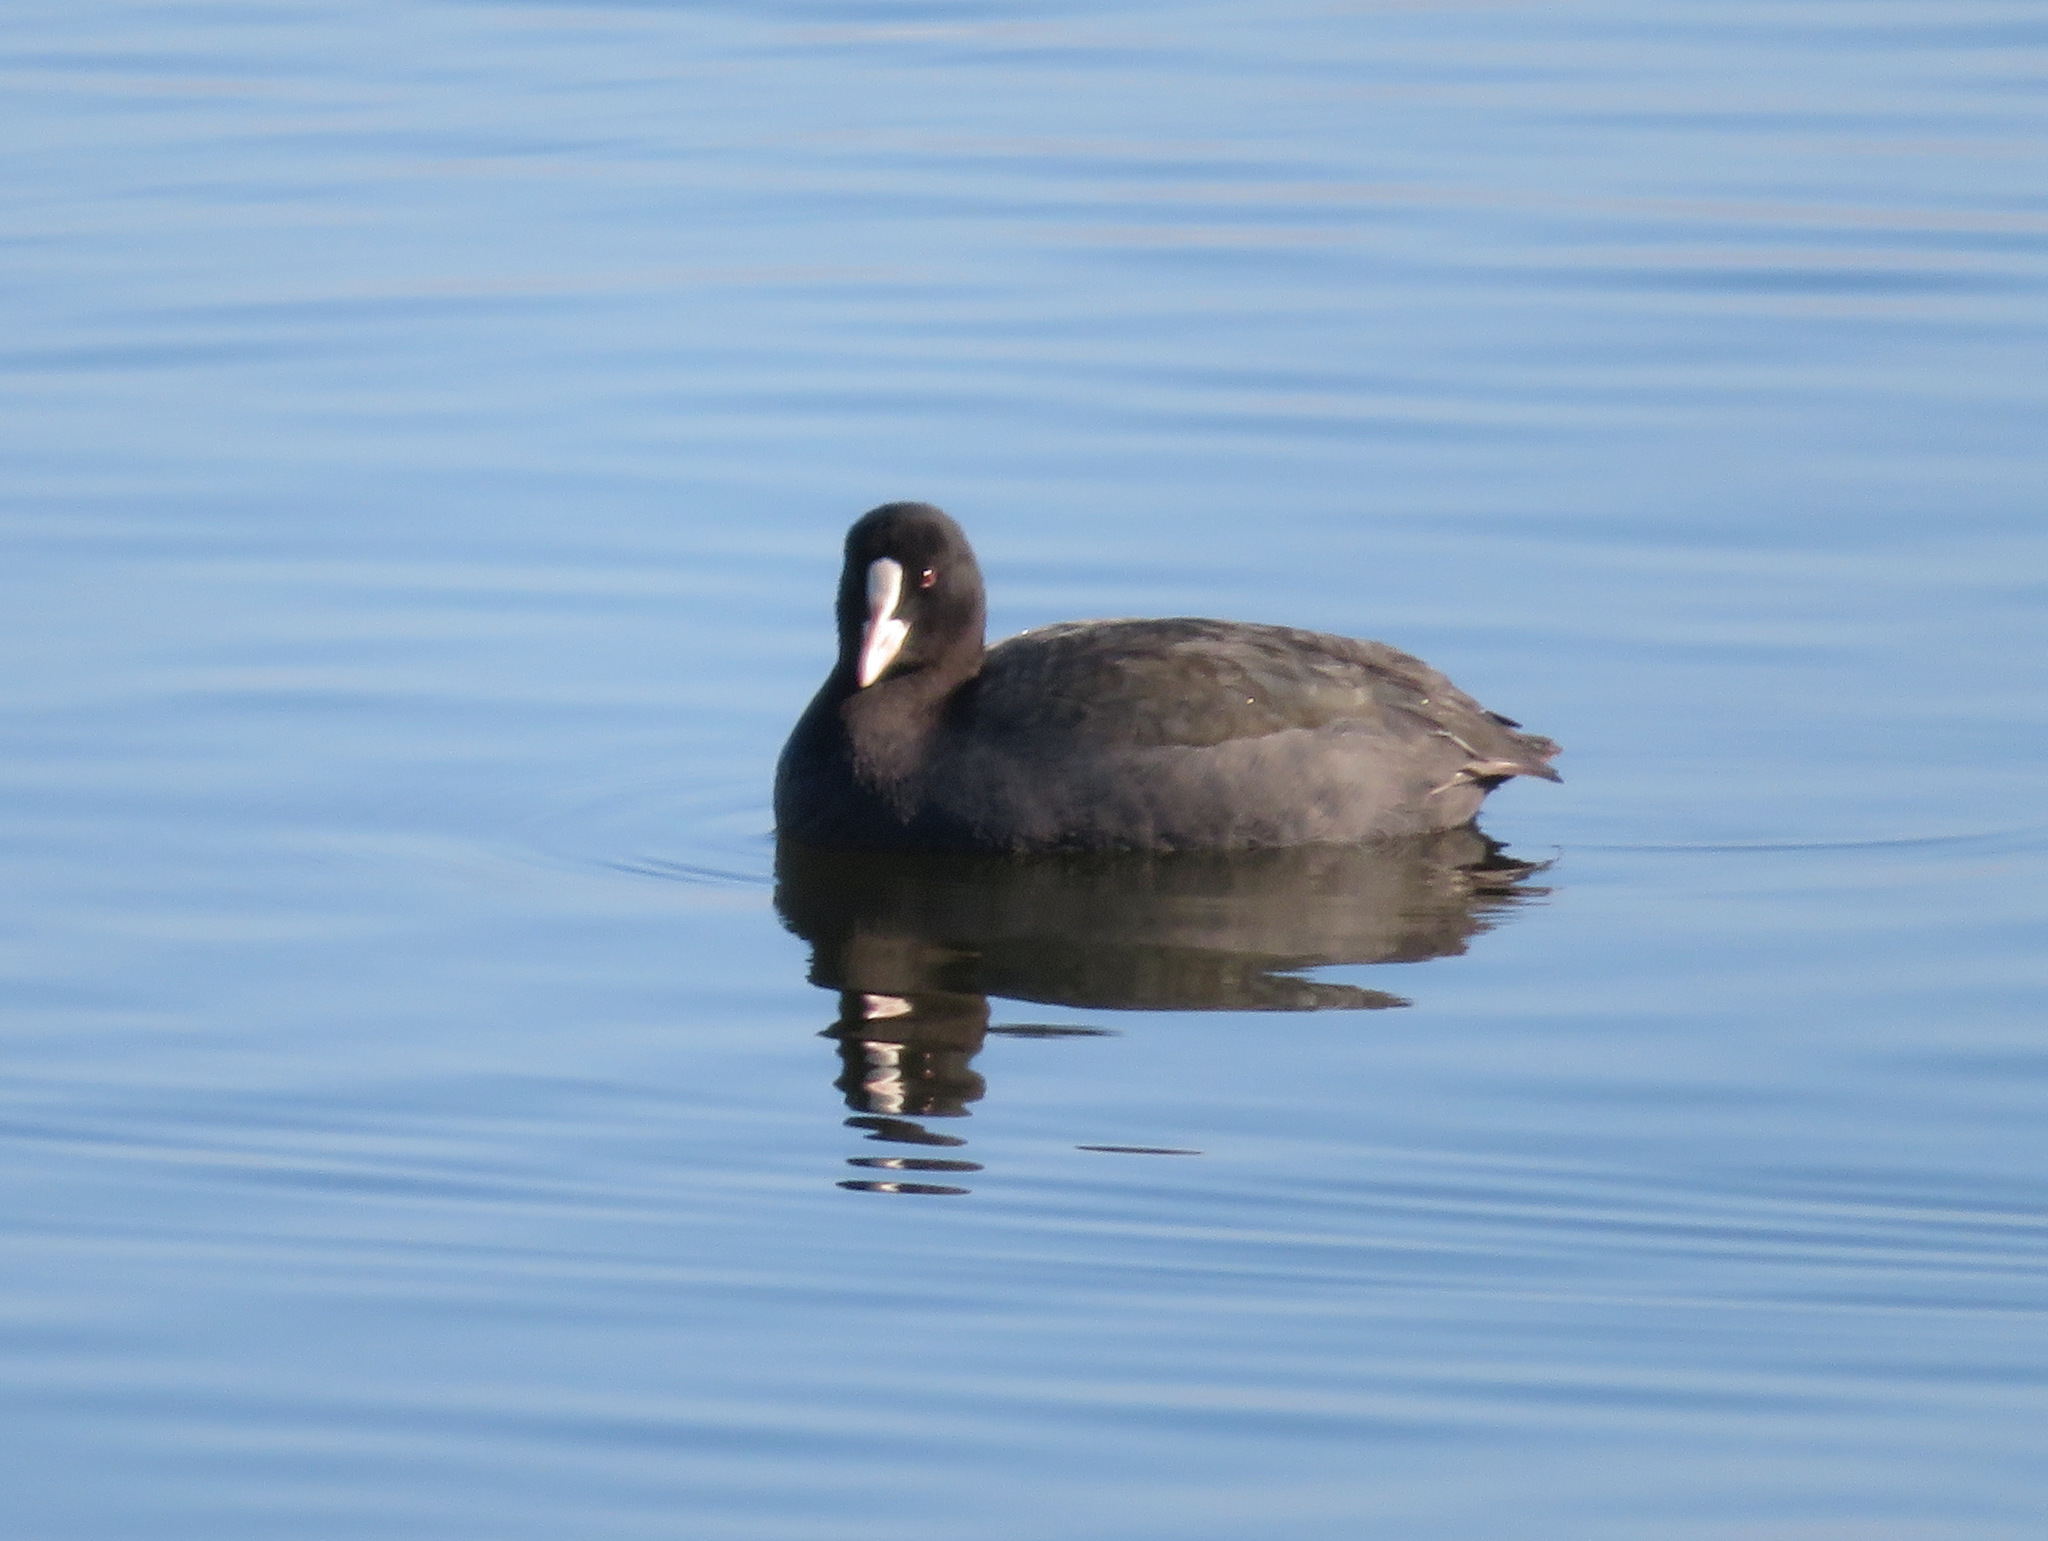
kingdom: Animalia
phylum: Chordata
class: Aves
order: Gruiformes
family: Rallidae
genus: Fulica
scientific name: Fulica atra
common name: Eurasian coot
